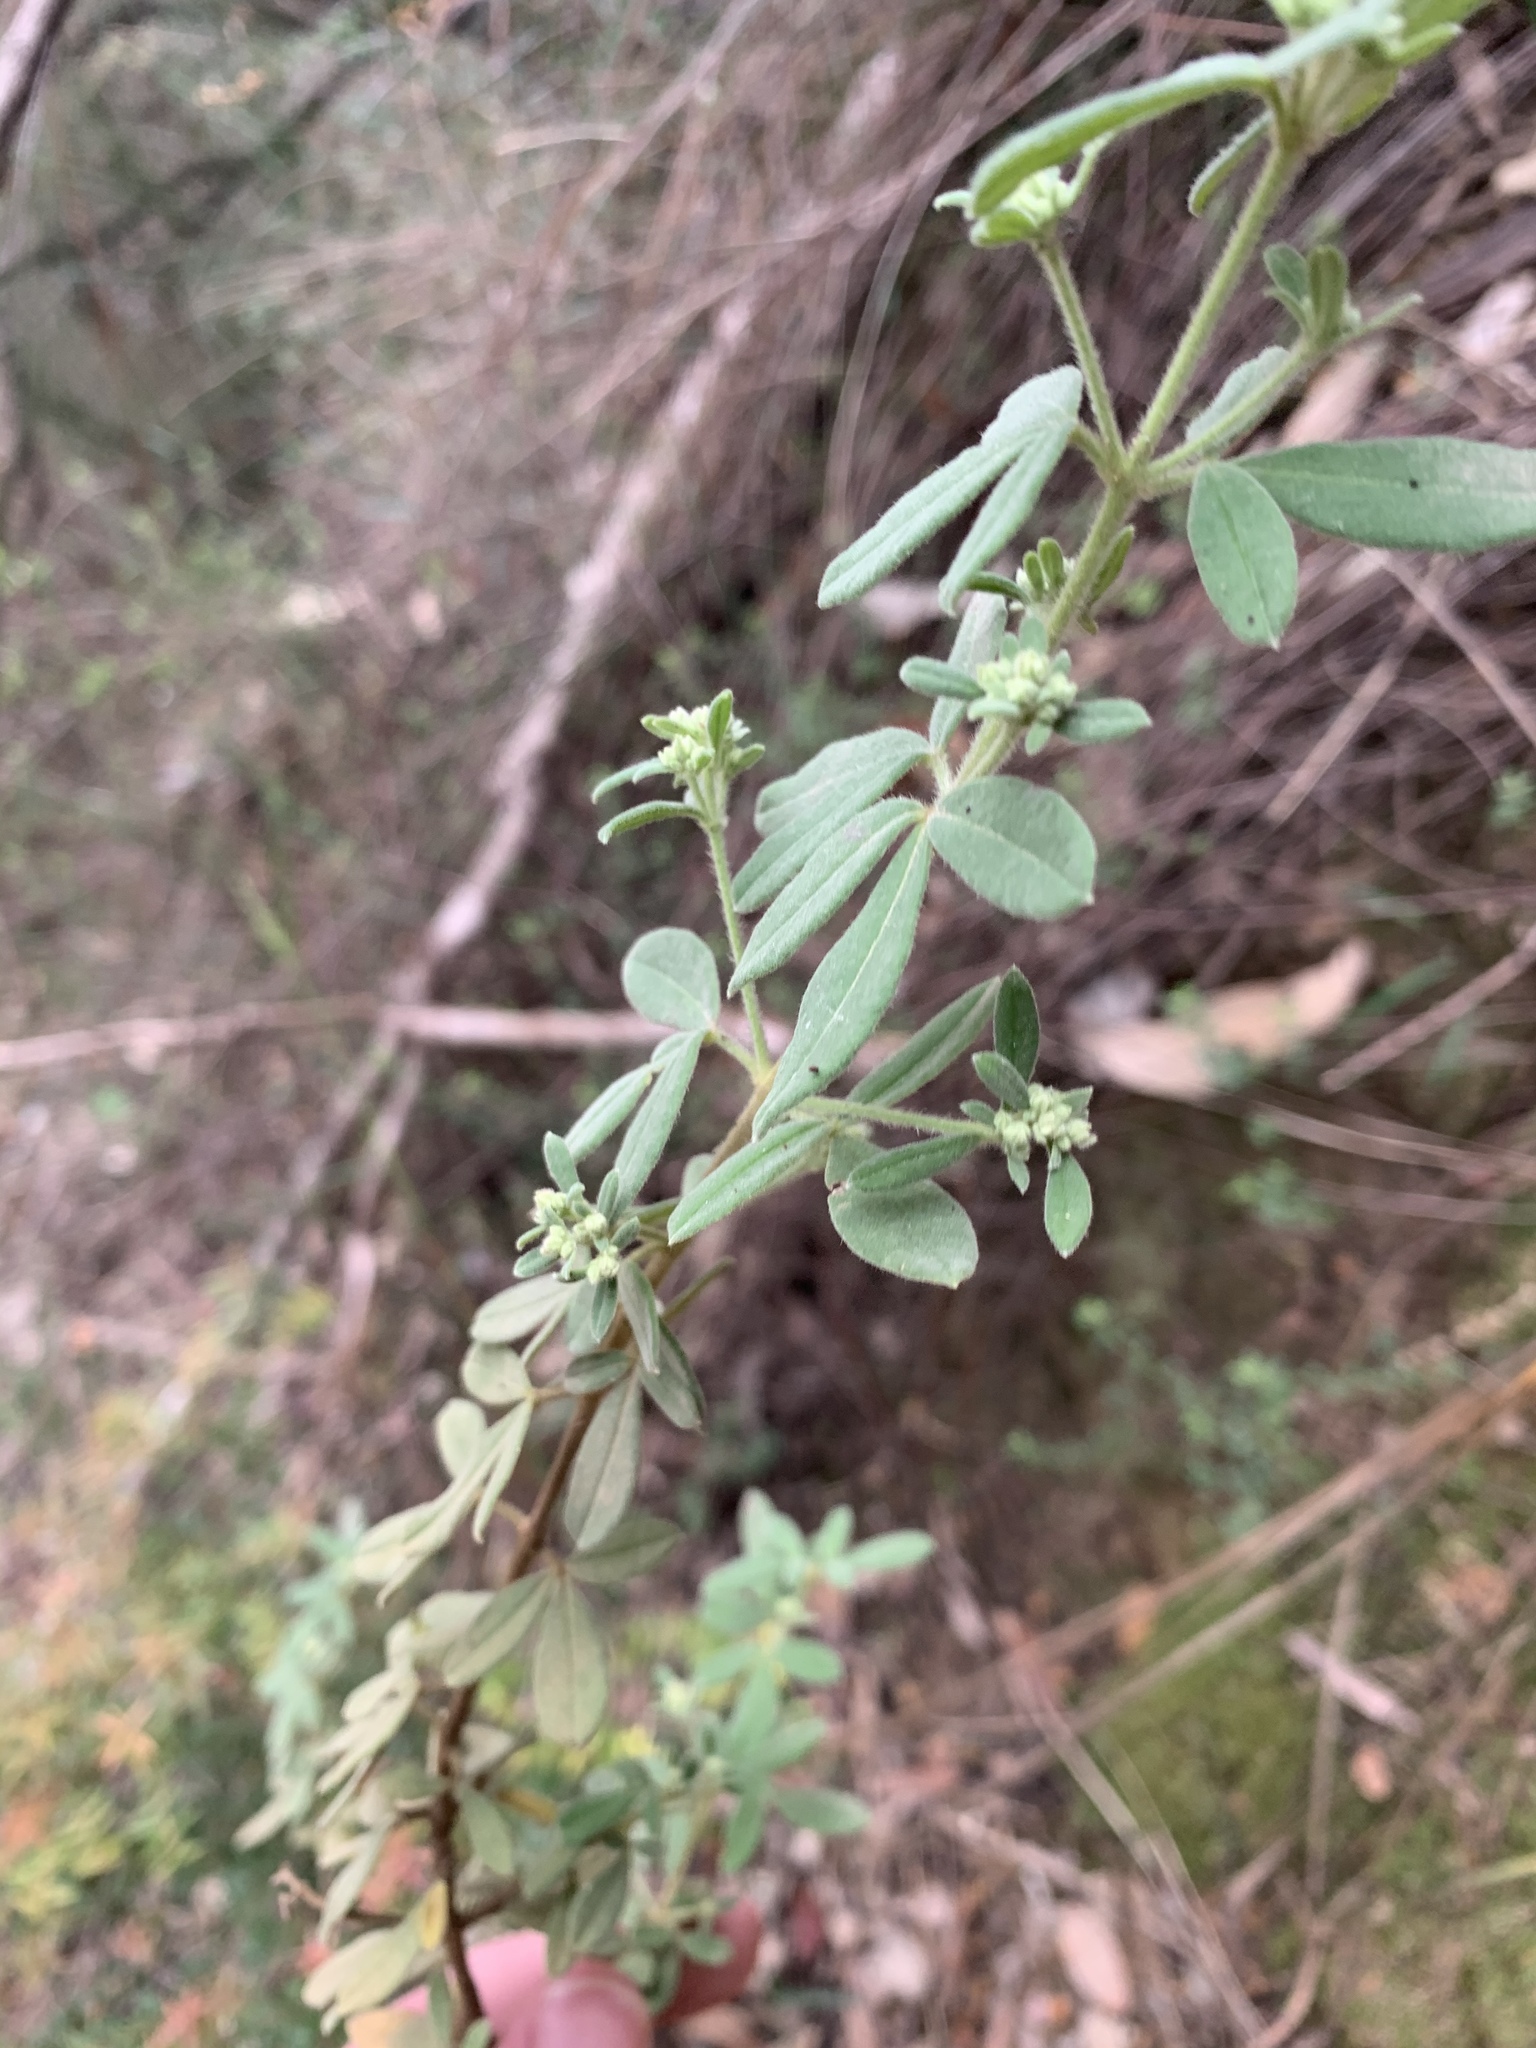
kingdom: Plantae
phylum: Tracheophyta
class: Magnoliopsida
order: Sapindales
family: Rutaceae
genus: Zieria
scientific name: Zieria cytisoides
